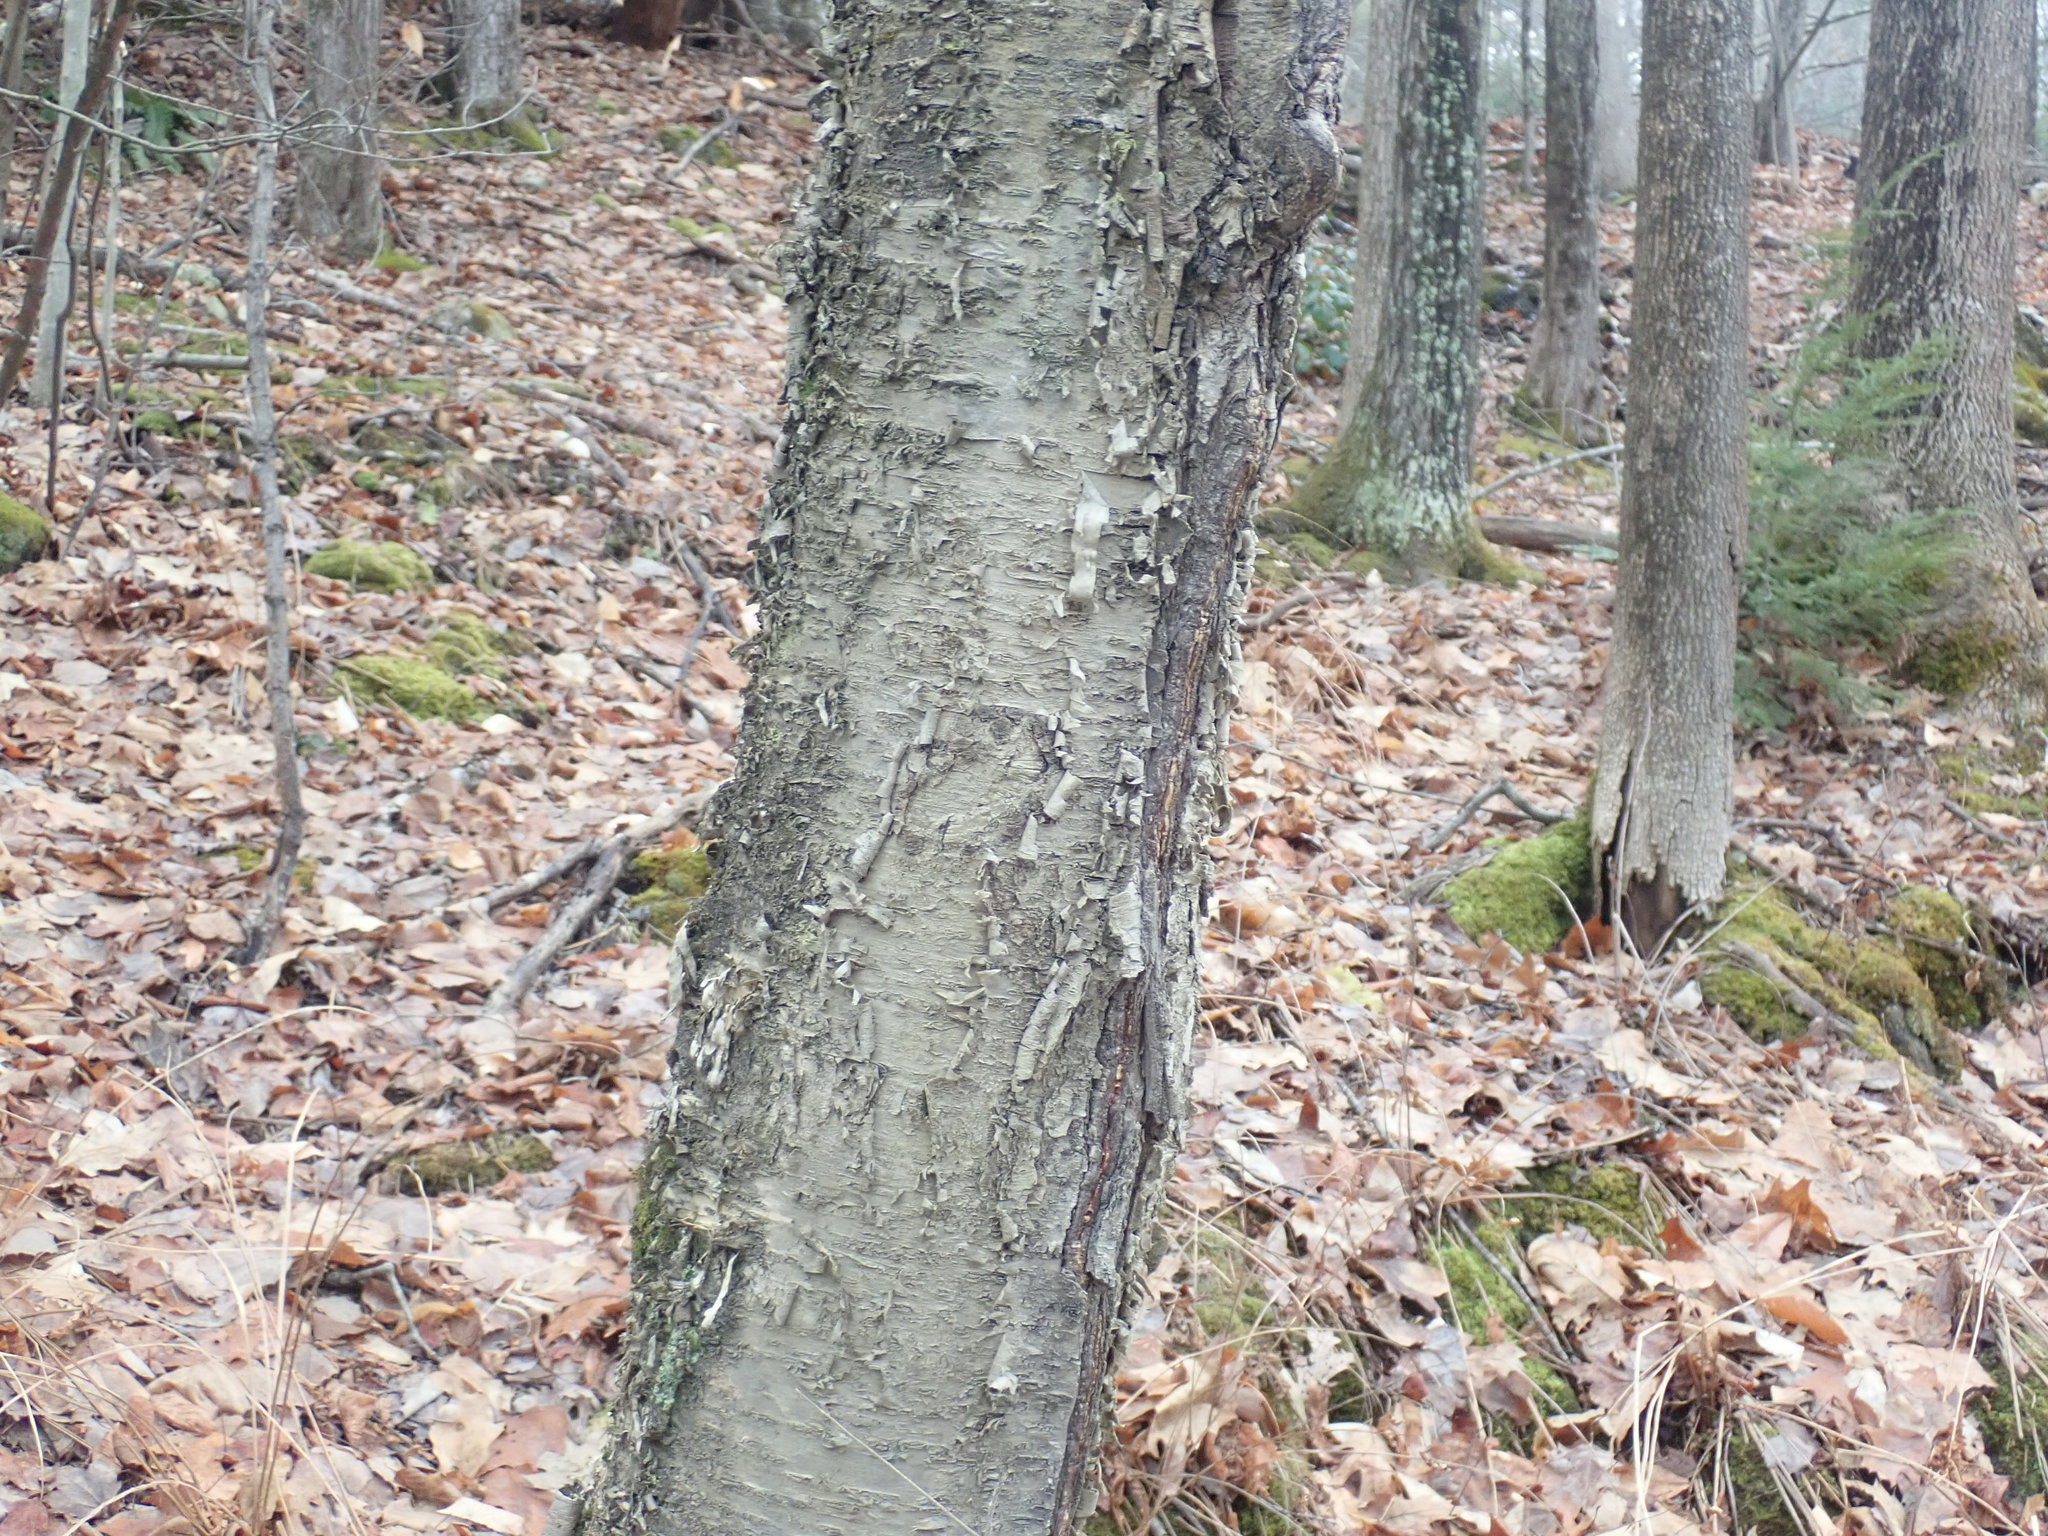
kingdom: Plantae
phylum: Tracheophyta
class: Magnoliopsida
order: Fagales
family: Betulaceae
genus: Betula
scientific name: Betula alleghaniensis
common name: Yellow birch
